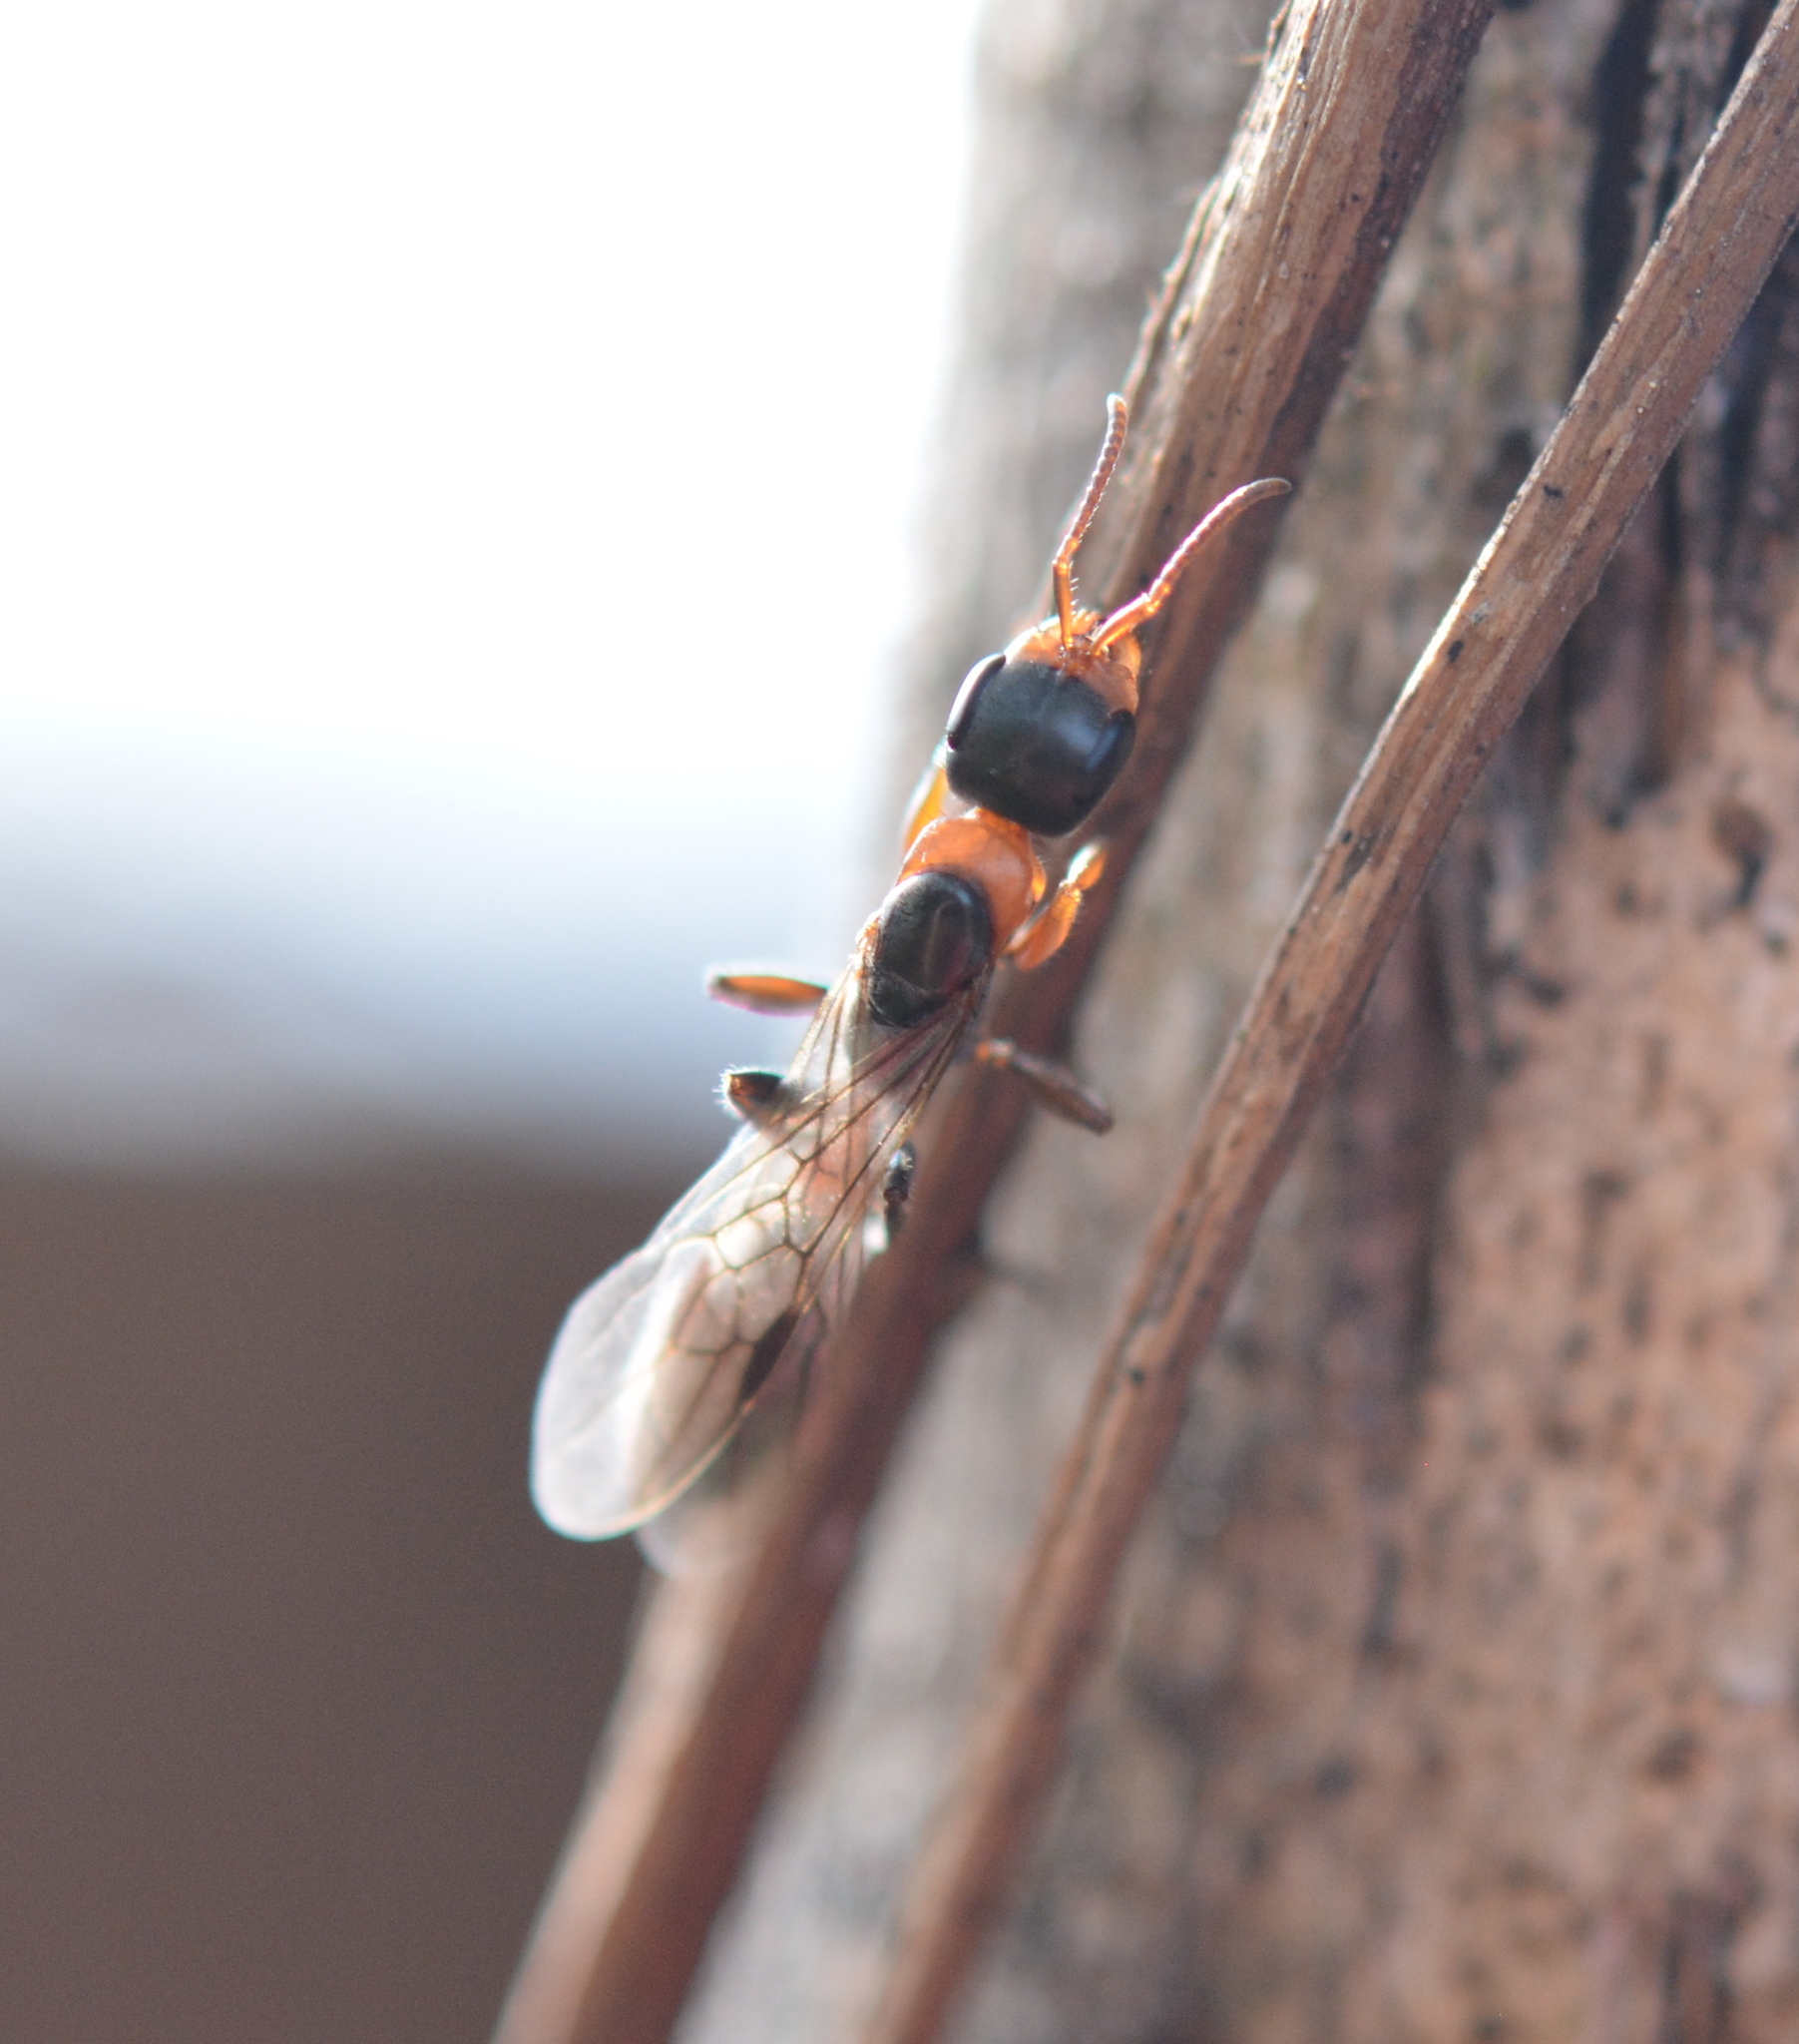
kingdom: Animalia
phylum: Arthropoda
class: Insecta
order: Hymenoptera
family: Formicidae
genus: Pseudomyrmex
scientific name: Pseudomyrmex gracilis
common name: Graceful twig ant
